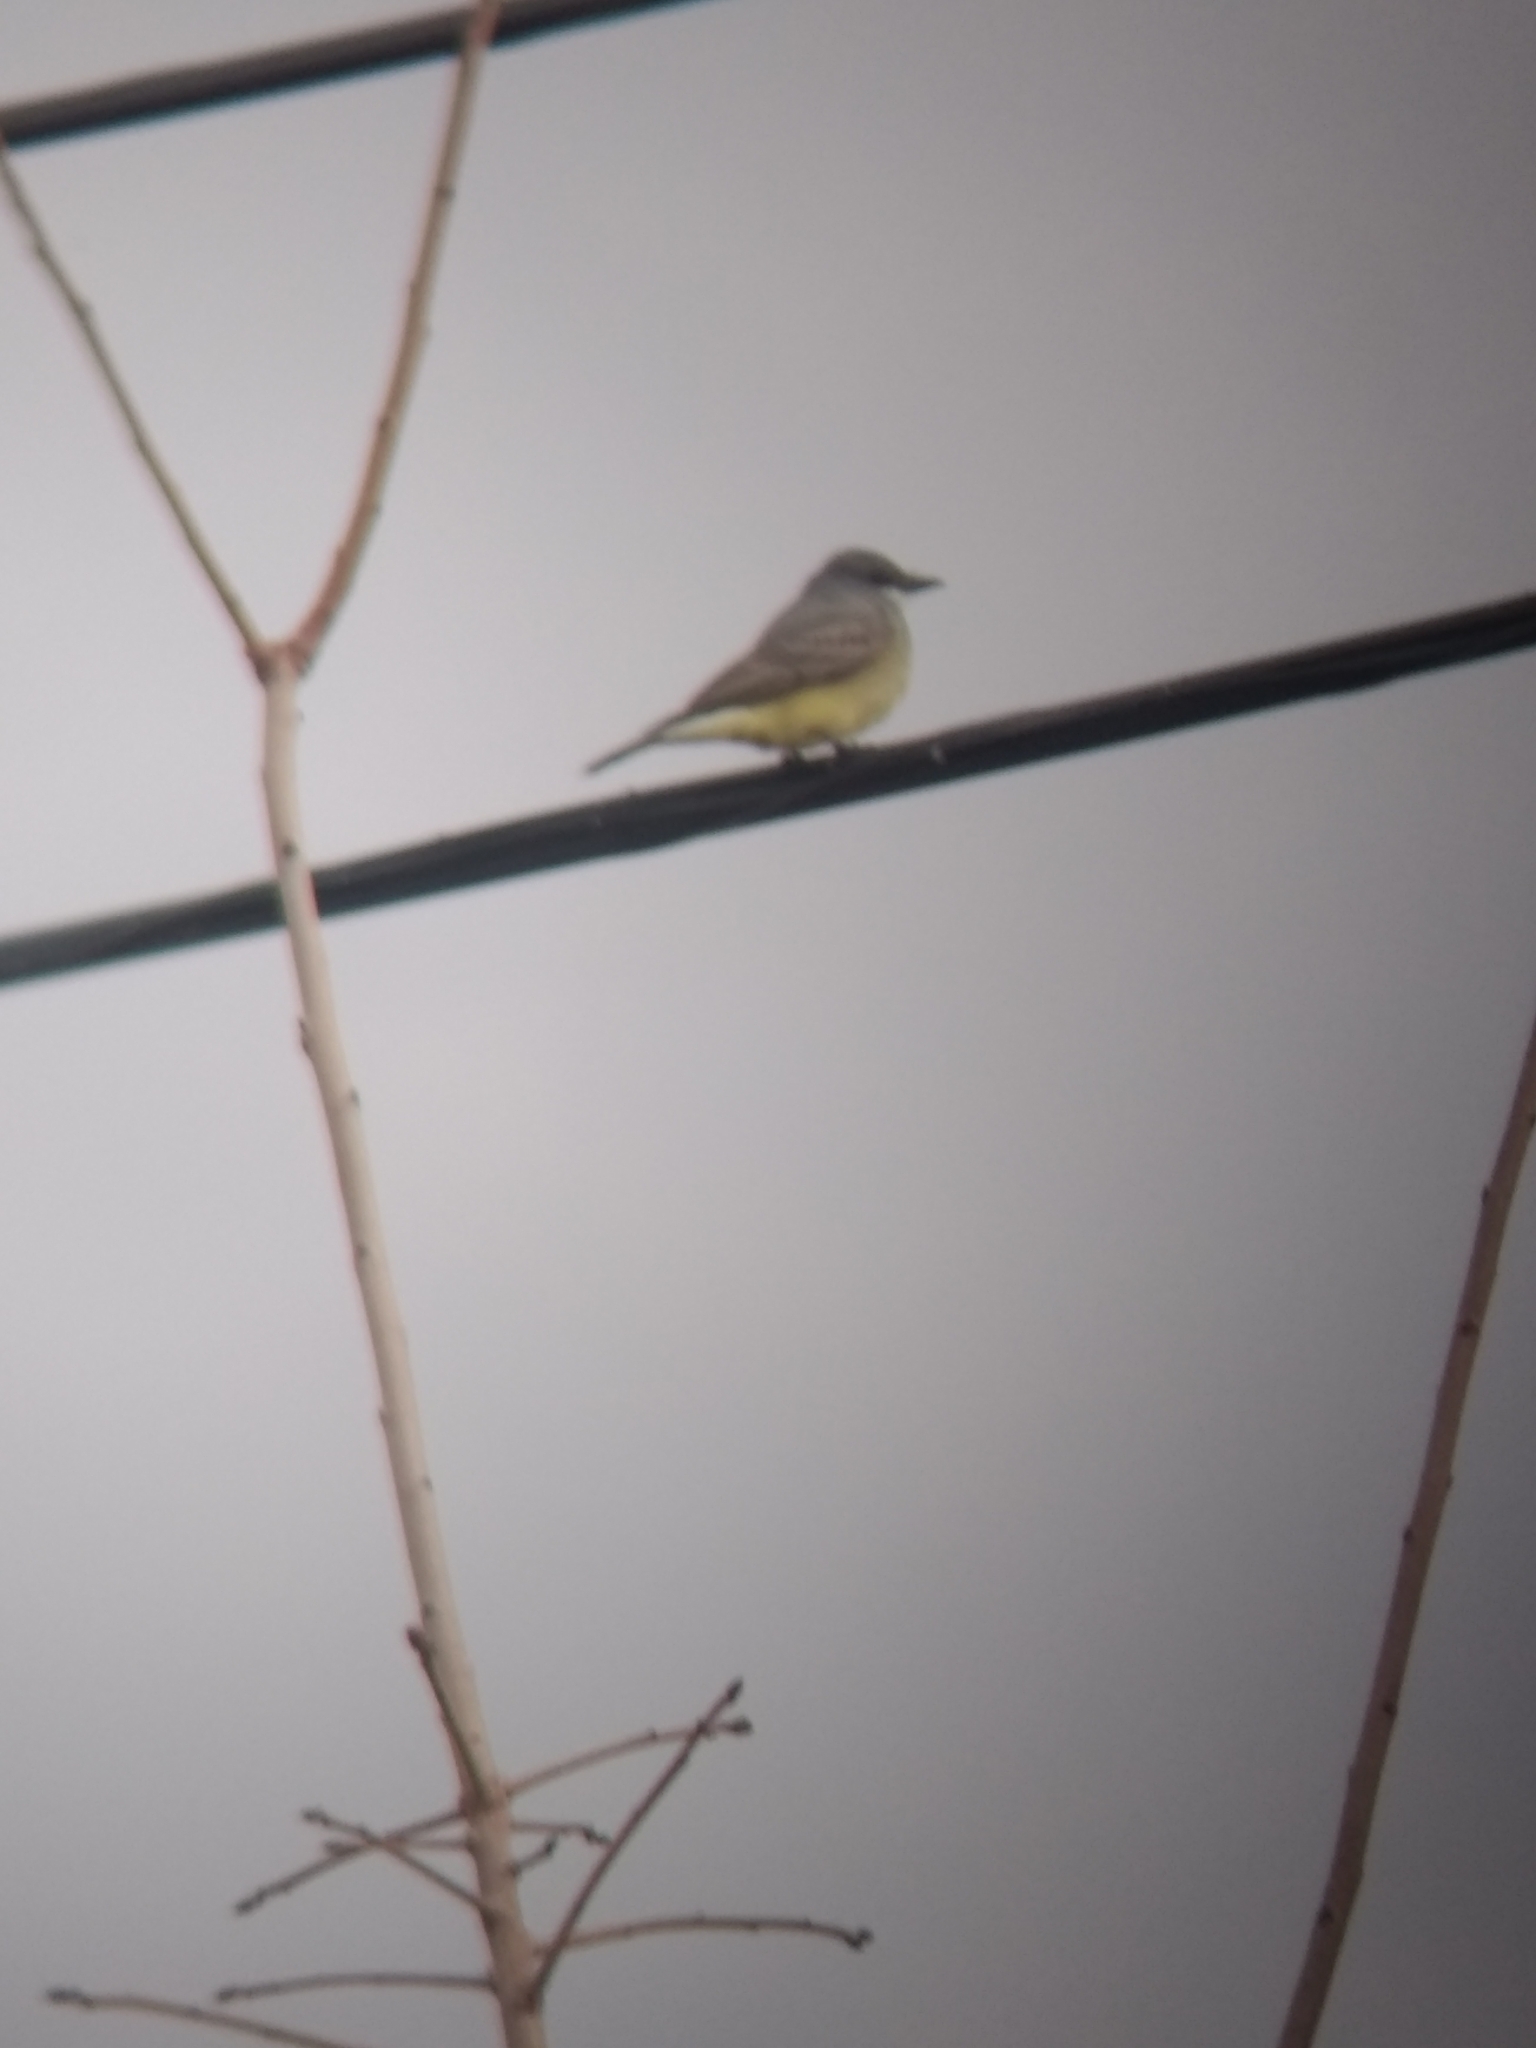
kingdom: Animalia
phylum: Chordata
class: Aves
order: Passeriformes
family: Tyrannidae
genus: Tyrannus
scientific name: Tyrannus vociferans
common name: Cassin's kingbird
